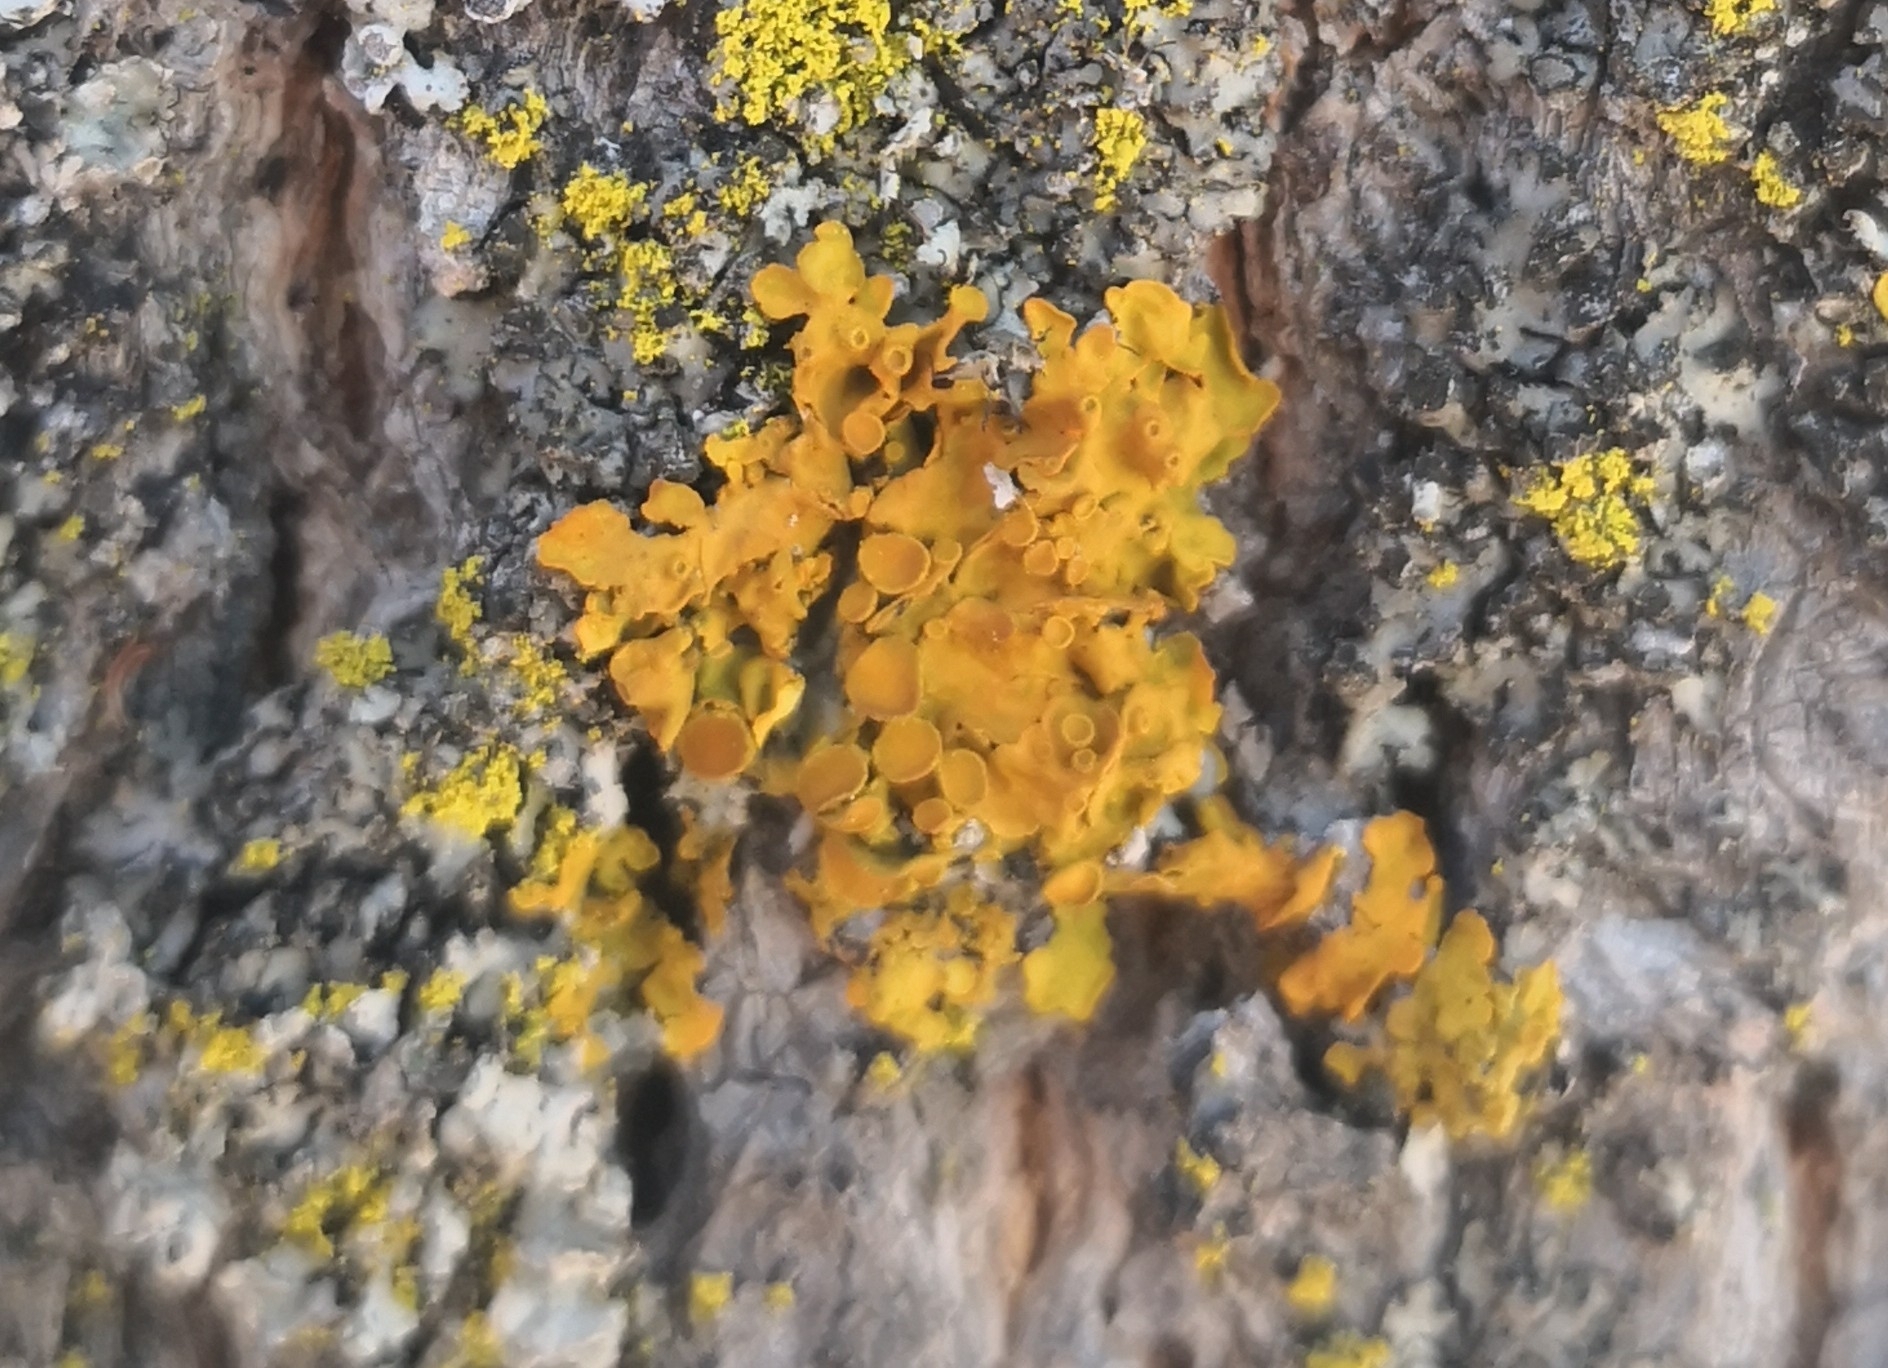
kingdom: Fungi
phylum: Ascomycota
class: Lecanoromycetes
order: Teloschistales
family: Teloschistaceae
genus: Xanthoria
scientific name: Xanthoria parietina
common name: Common orange lichen
